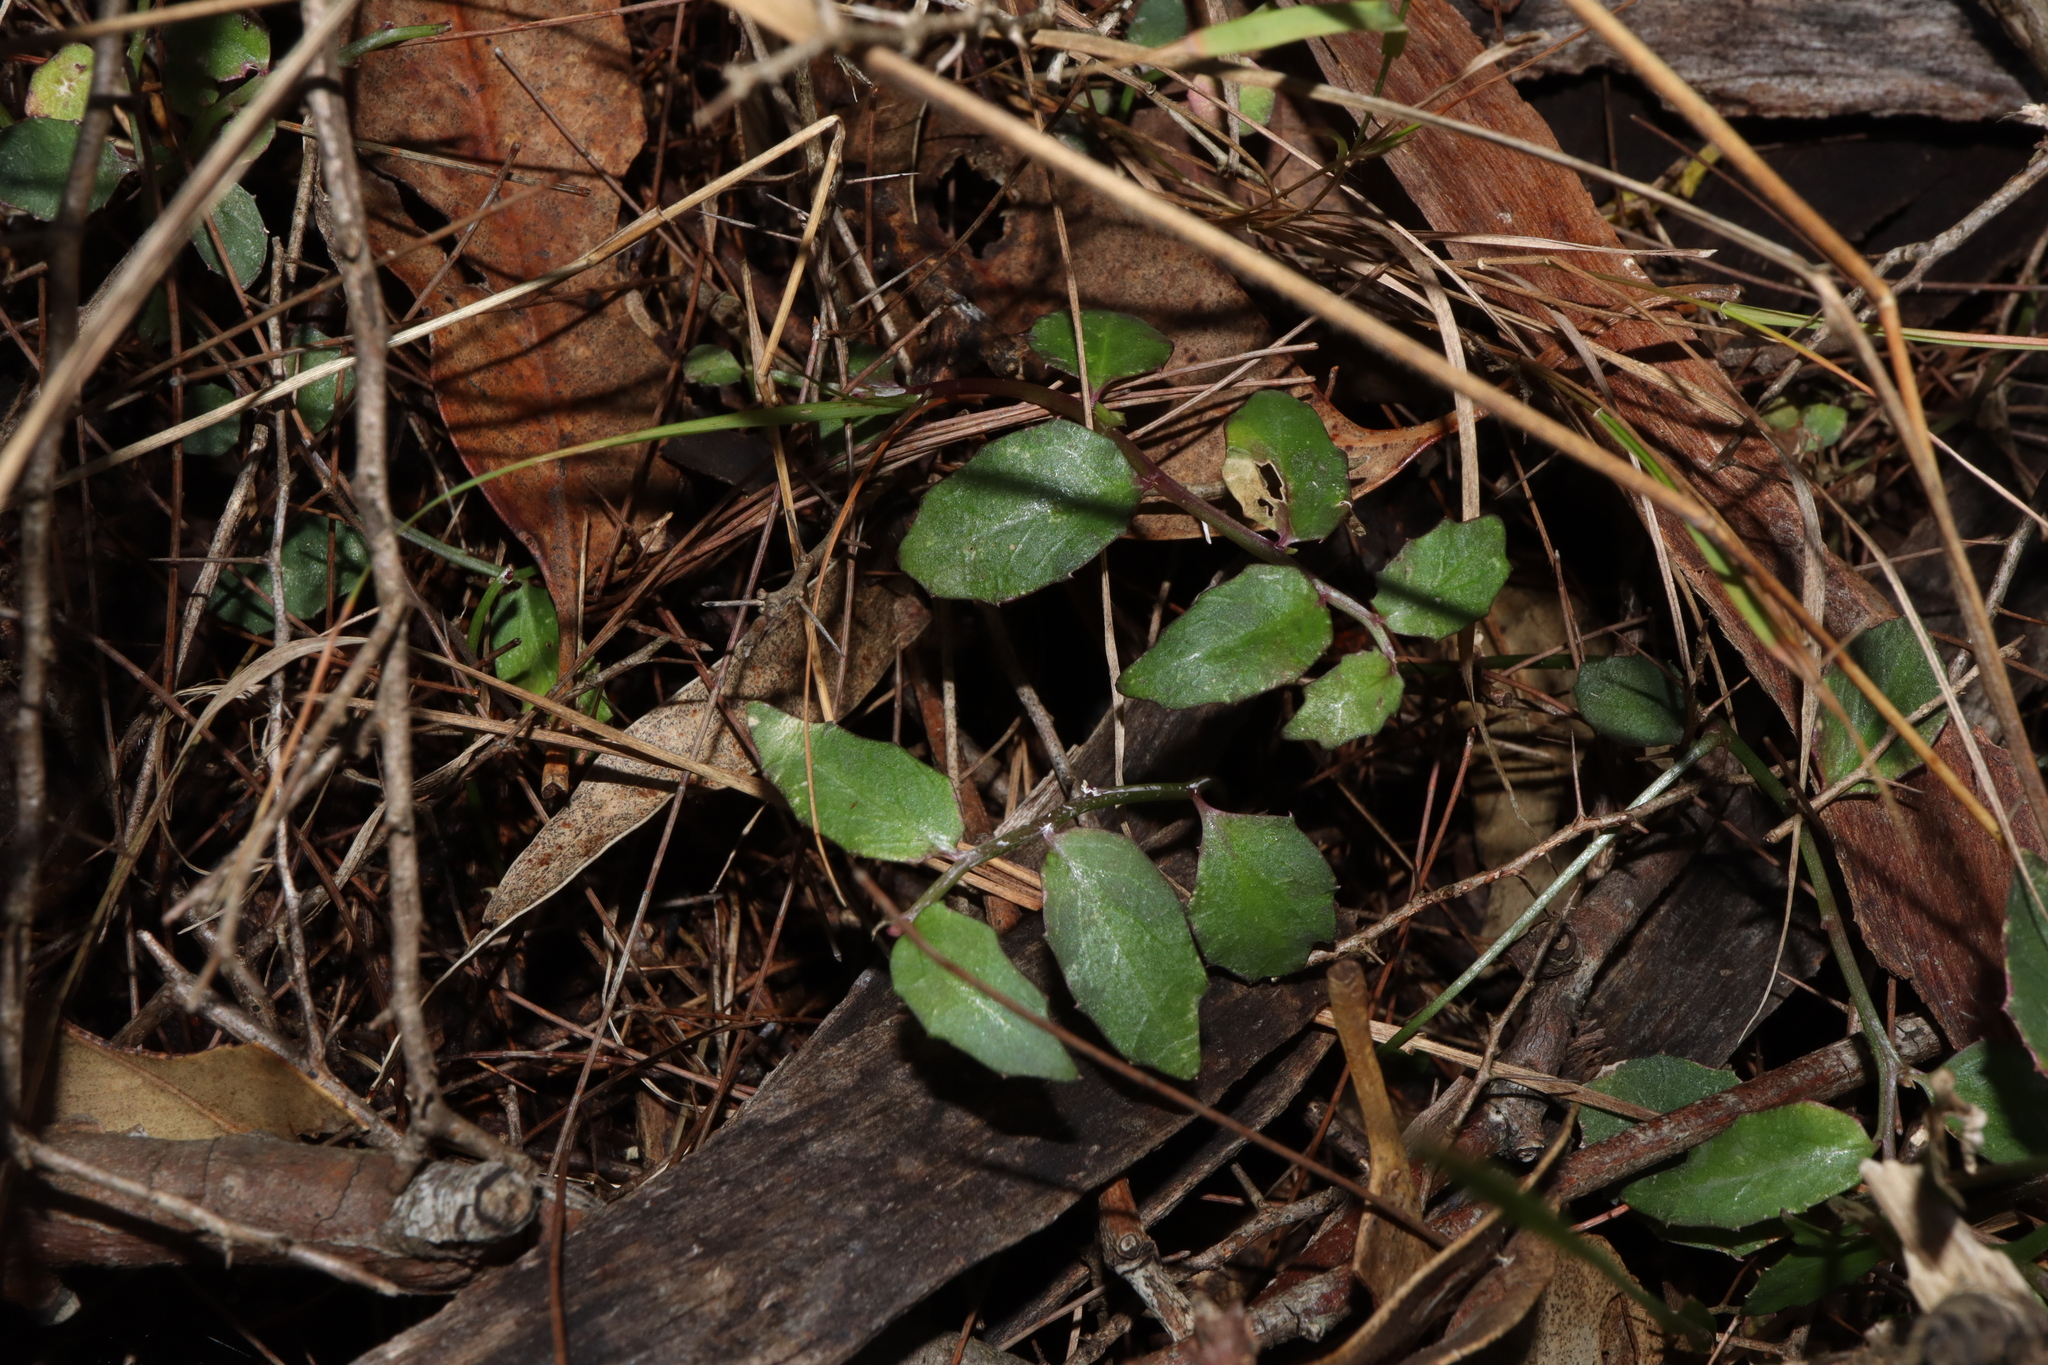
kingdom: Plantae
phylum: Tracheophyta
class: Magnoliopsida
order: Asterales
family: Campanulaceae
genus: Lobelia
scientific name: Lobelia purpurascens
